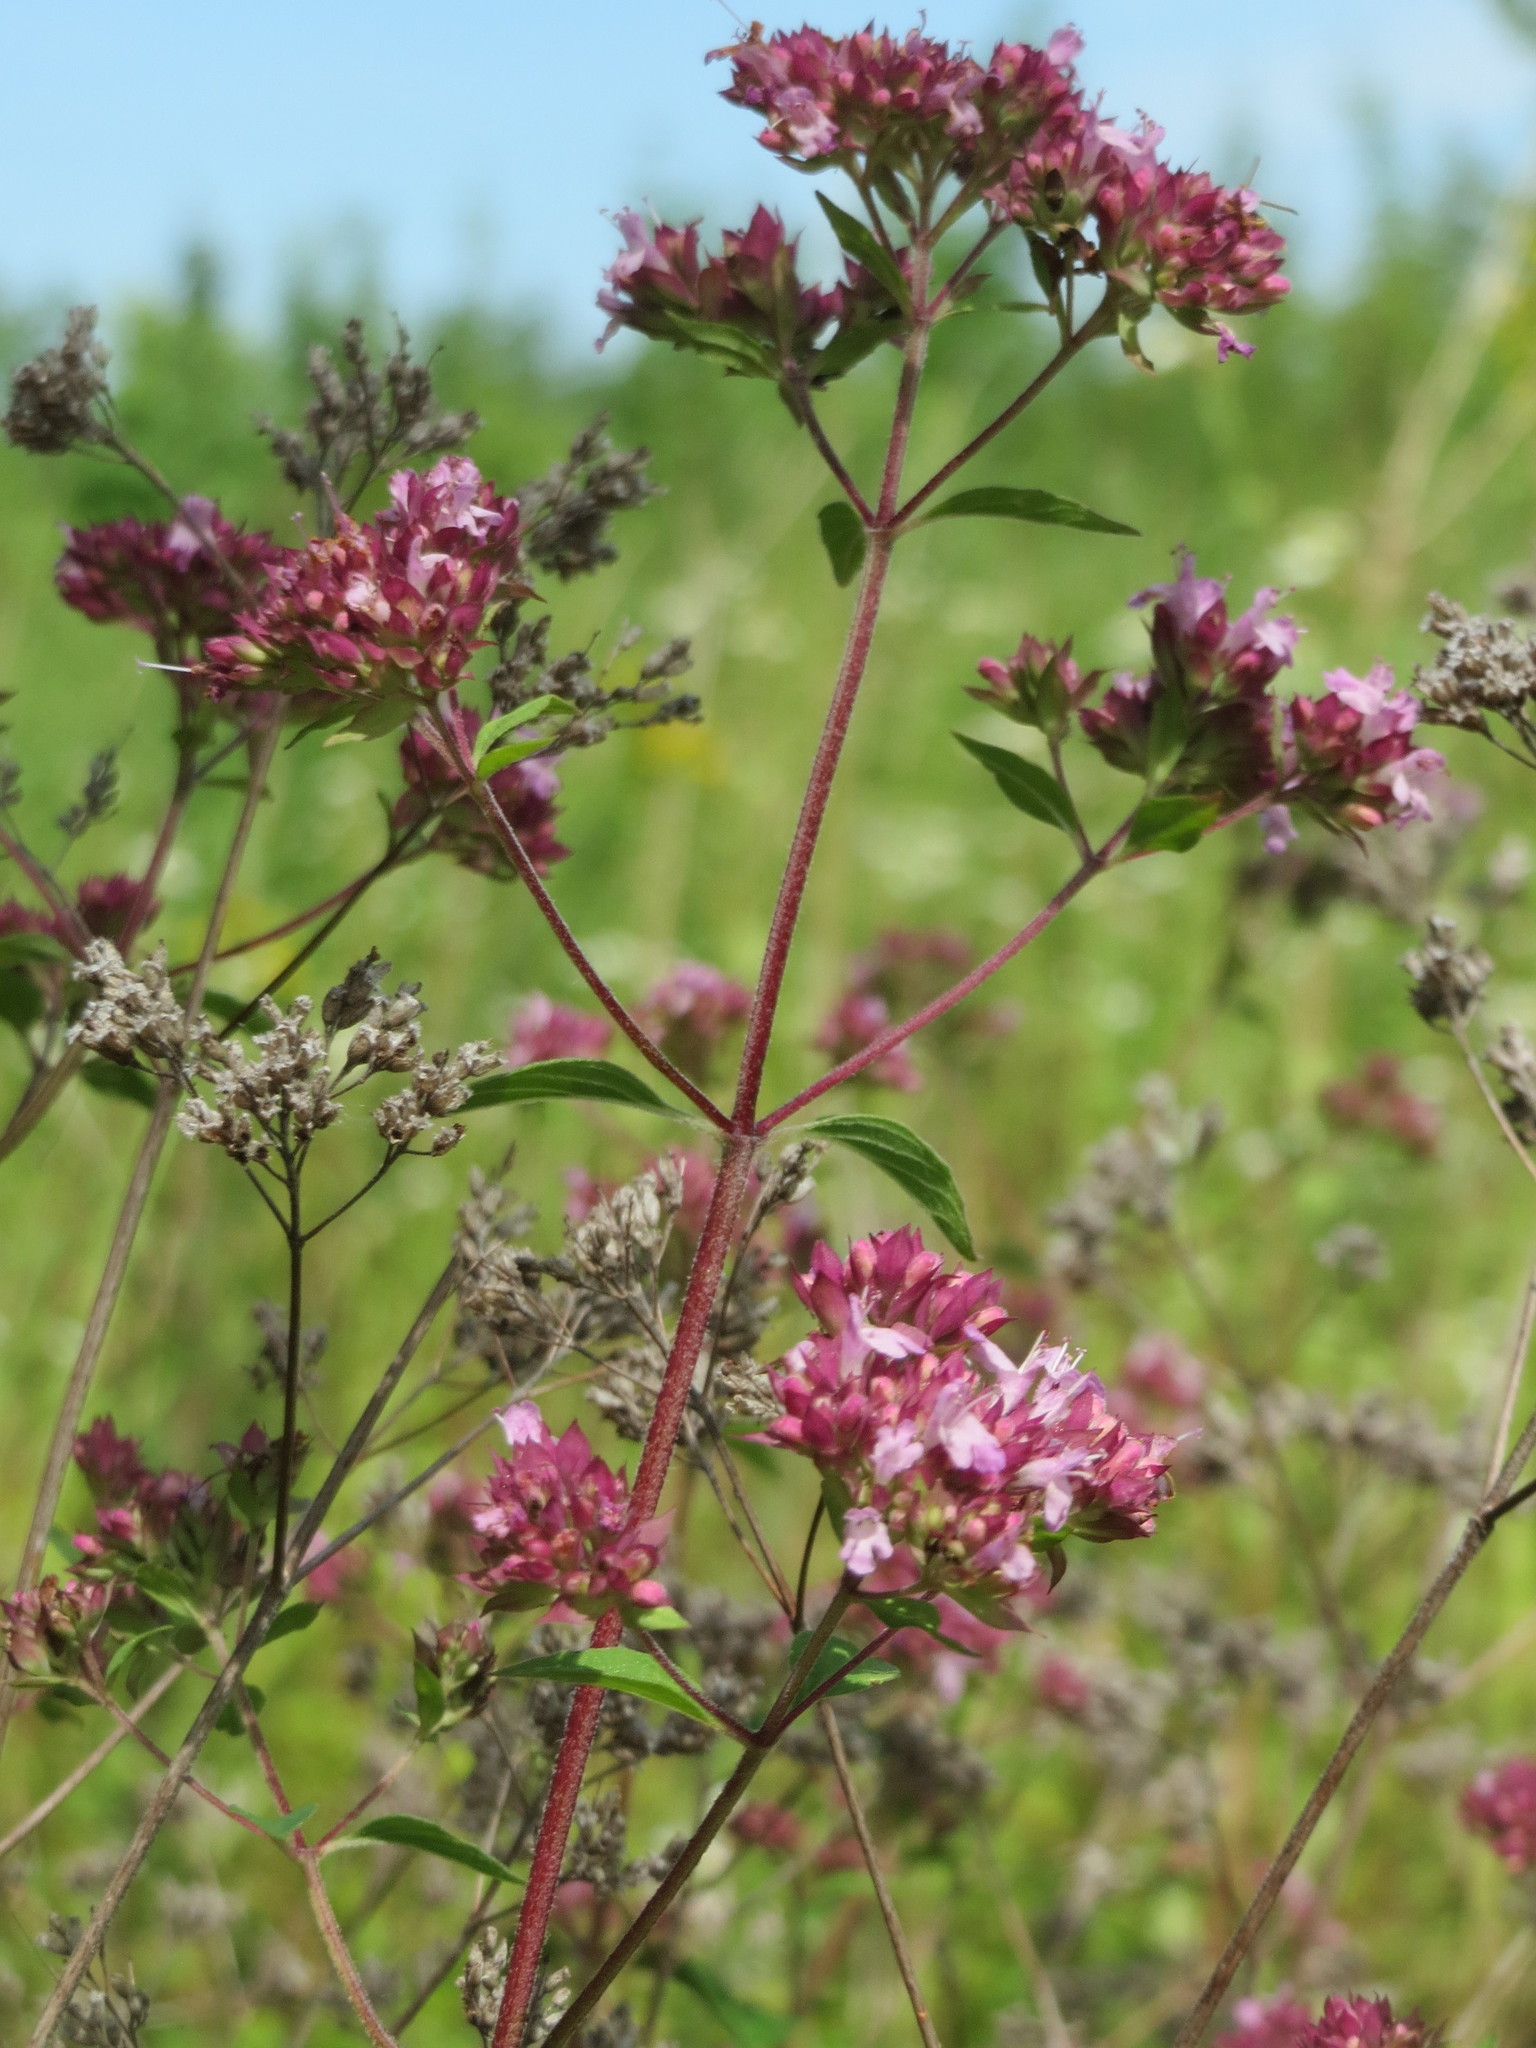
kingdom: Plantae
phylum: Tracheophyta
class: Magnoliopsida
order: Lamiales
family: Lamiaceae
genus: Origanum
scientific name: Origanum vulgare
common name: Wild marjoram
